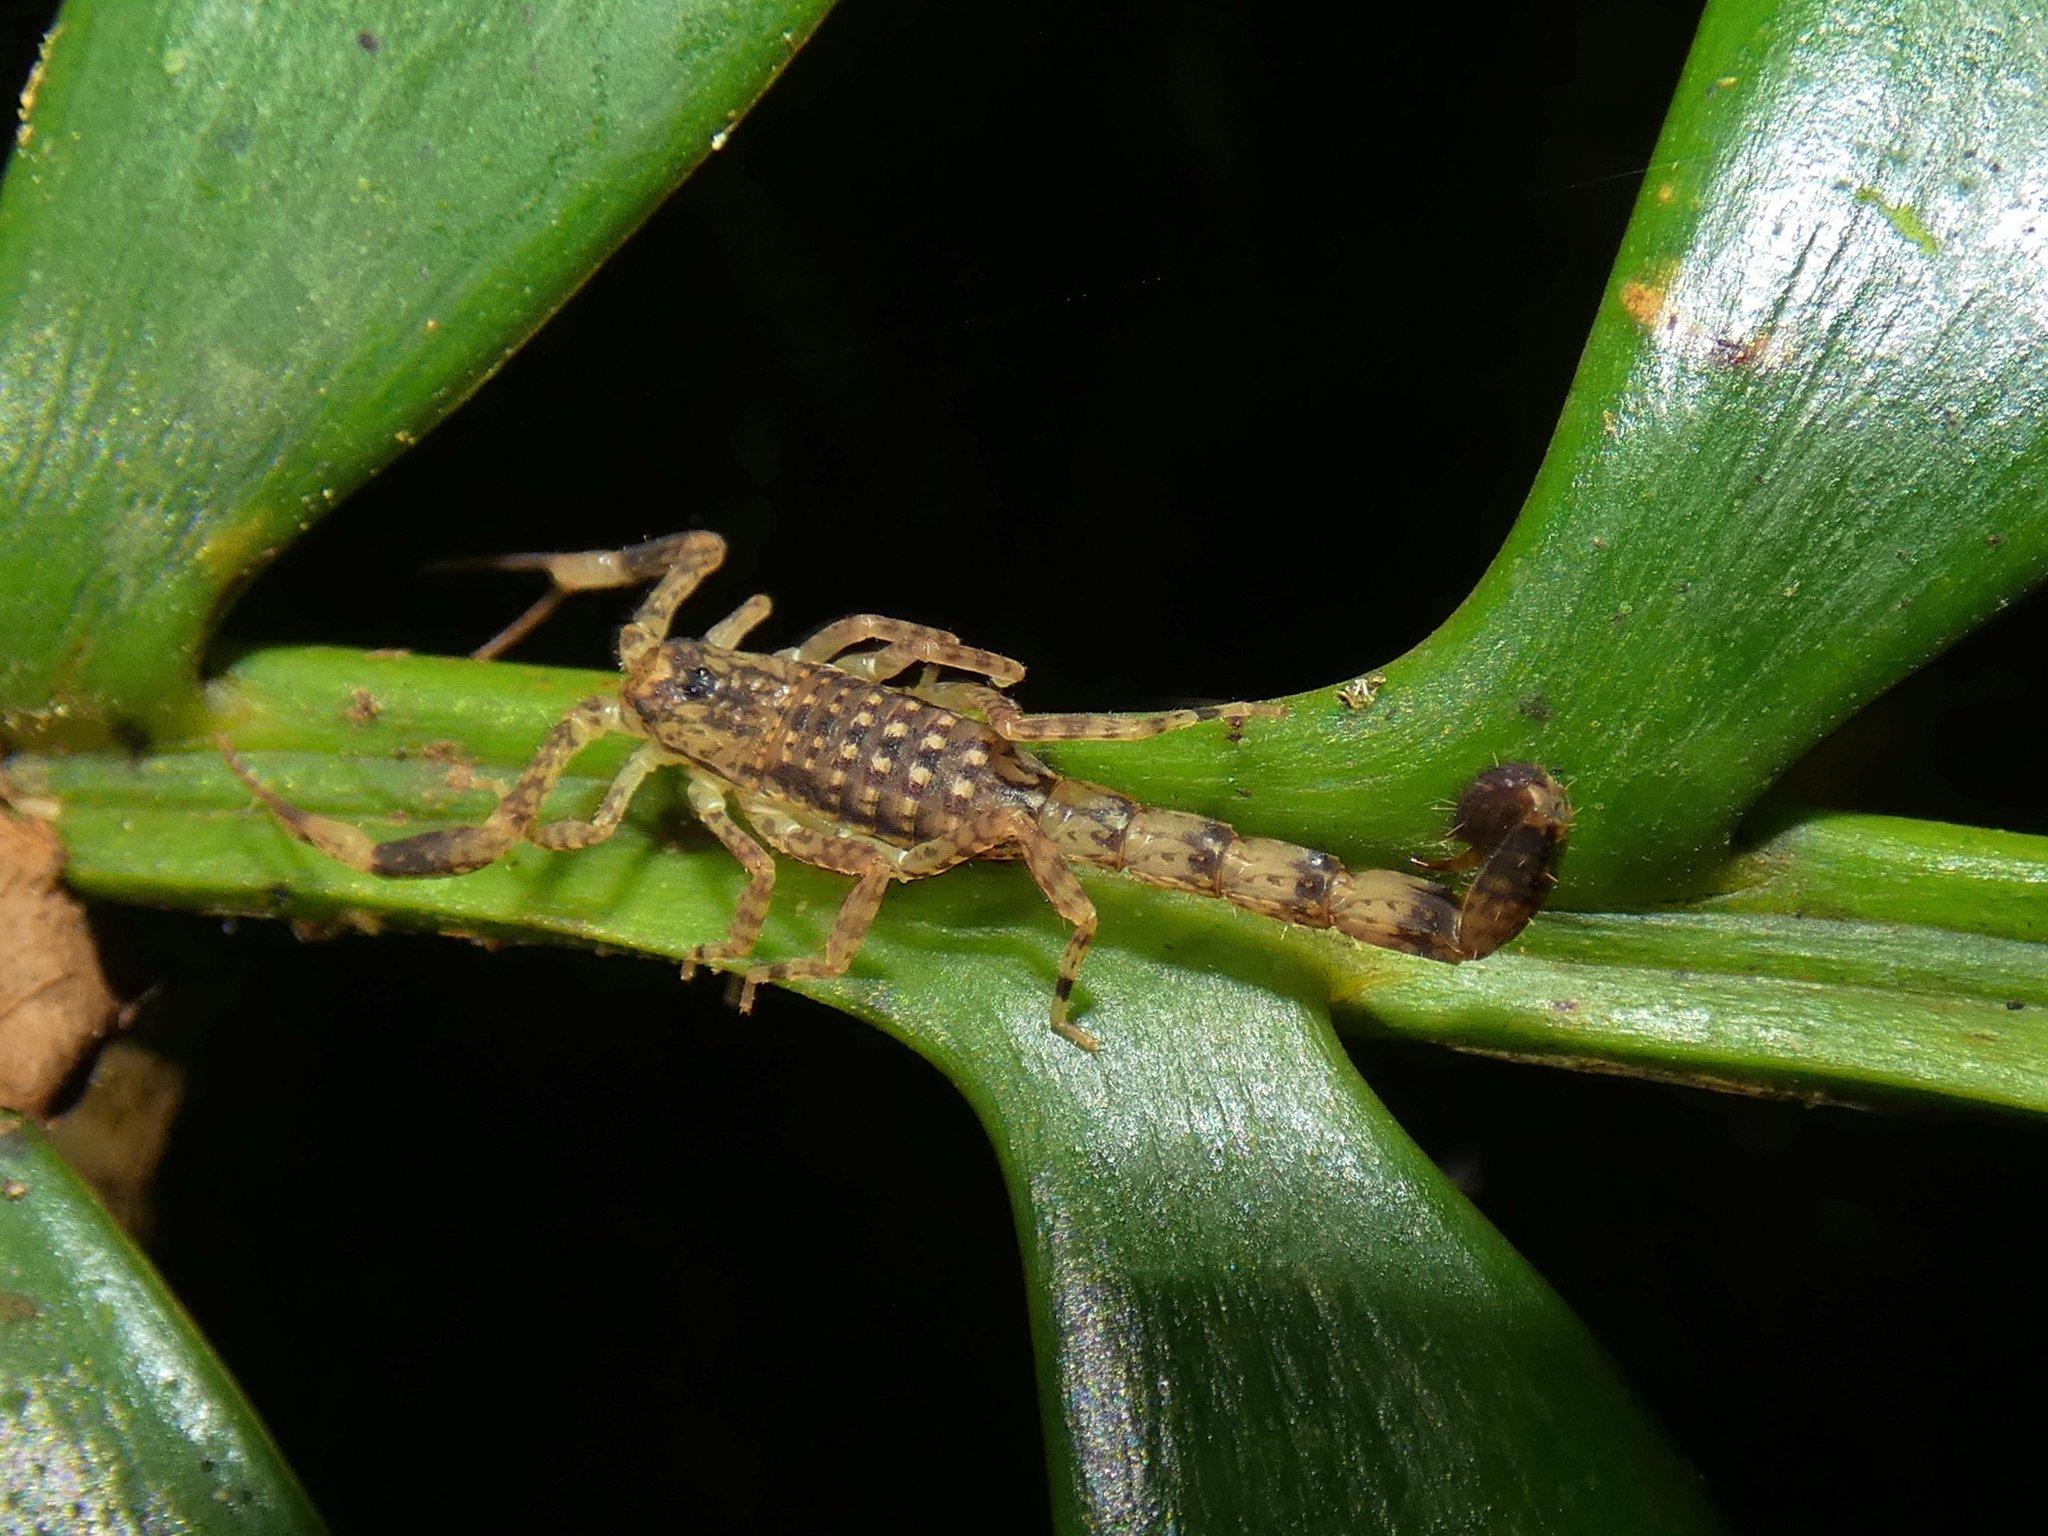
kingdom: Animalia
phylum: Arthropoda
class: Arachnida
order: Scorpiones
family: Buthidae
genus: Lychas
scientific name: Lychas variatus
